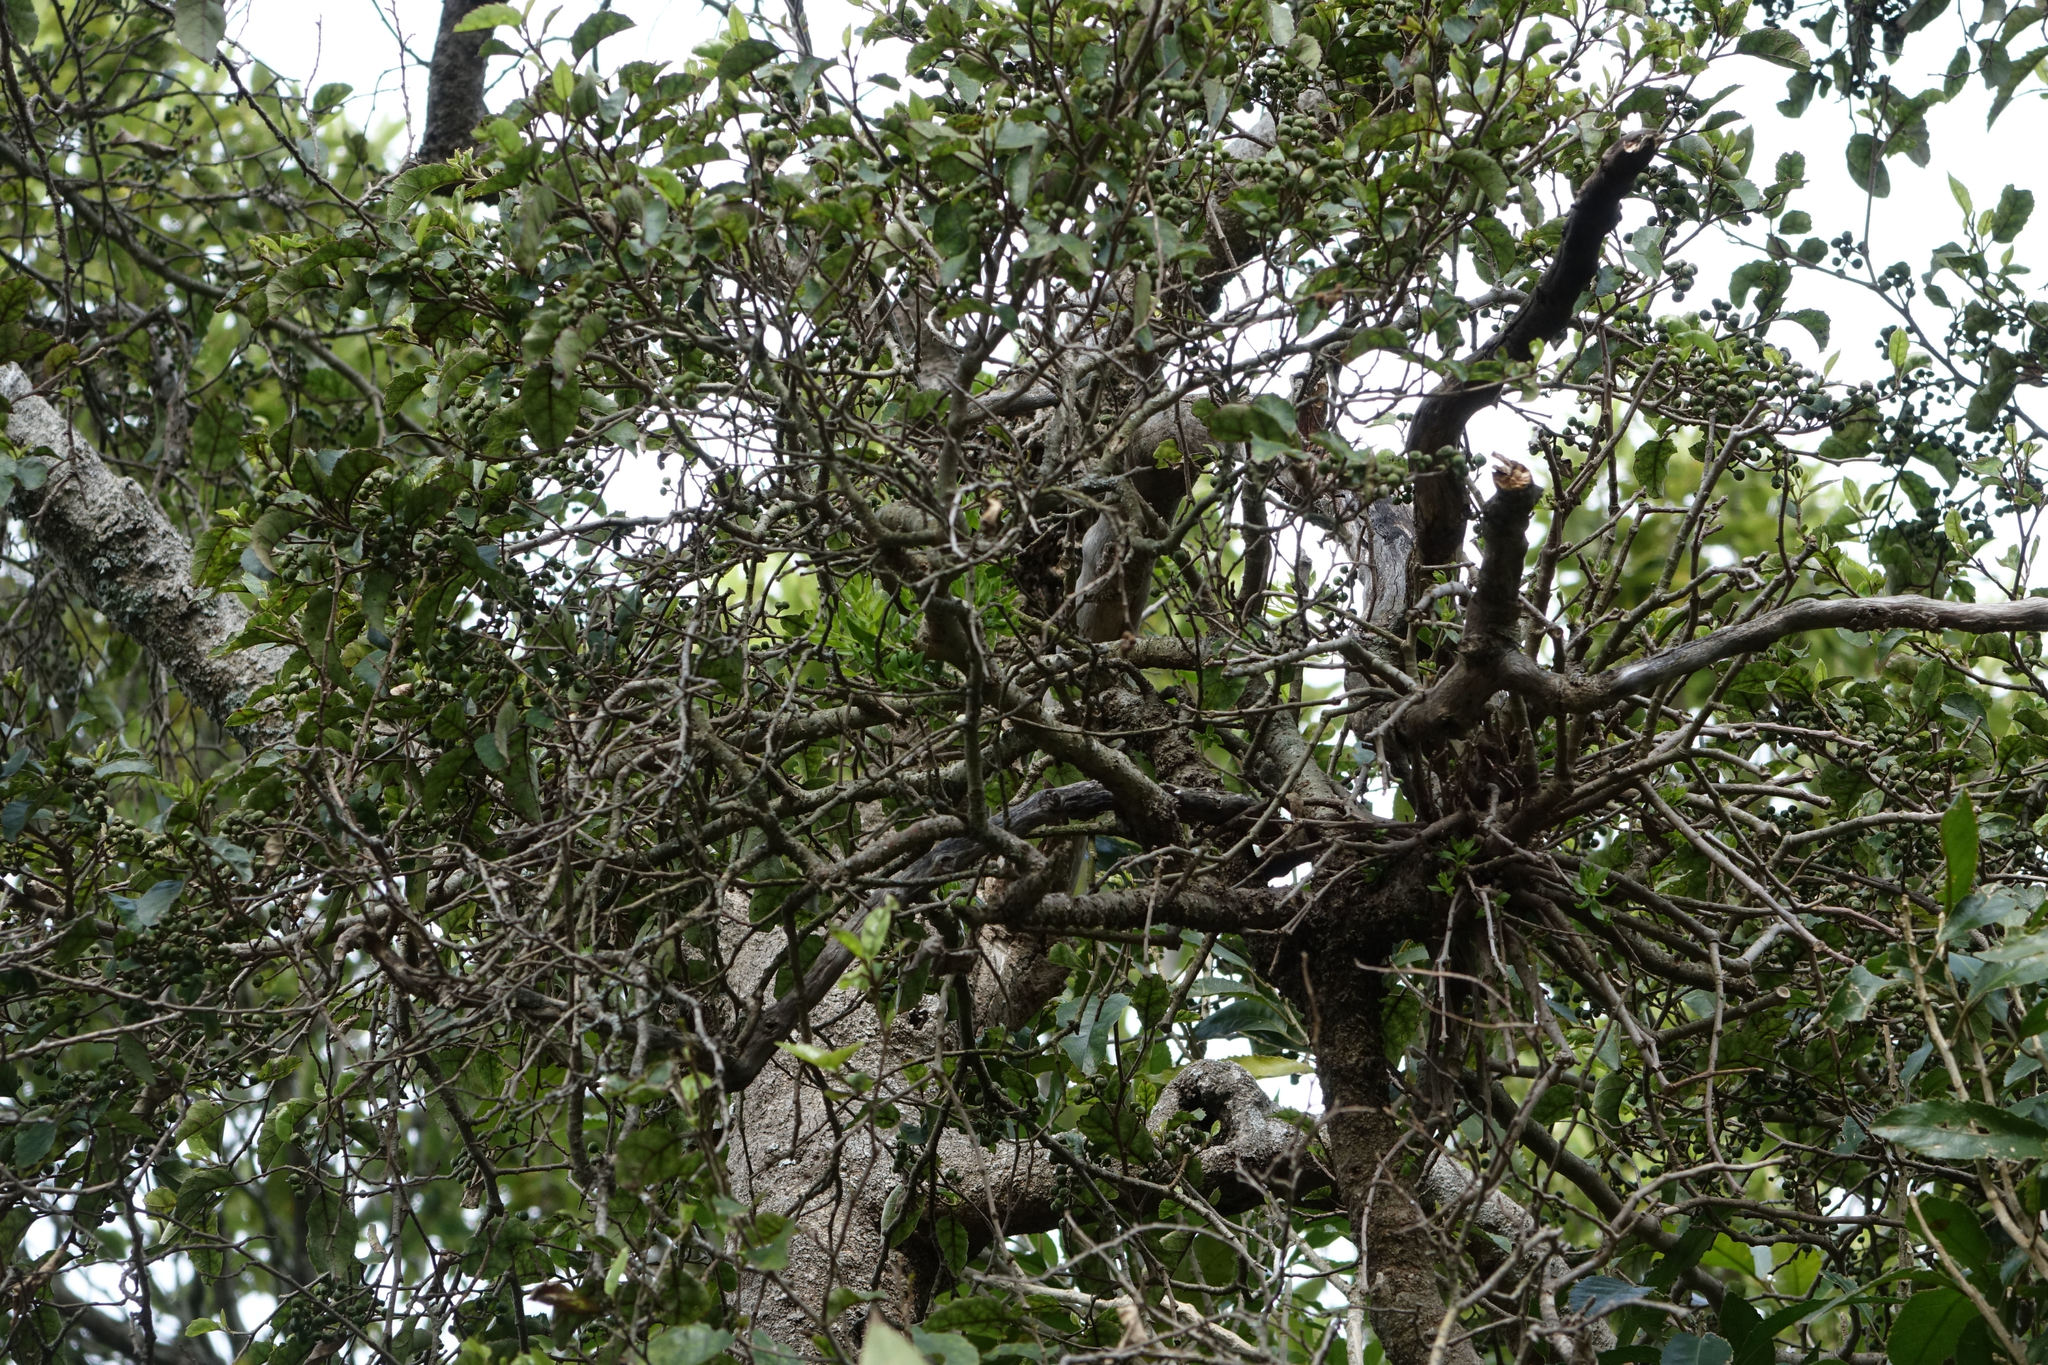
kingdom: Plantae
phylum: Tracheophyta
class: Magnoliopsida
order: Santalales
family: Loranthaceae
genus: Tupeia
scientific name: Tupeia antarctica
